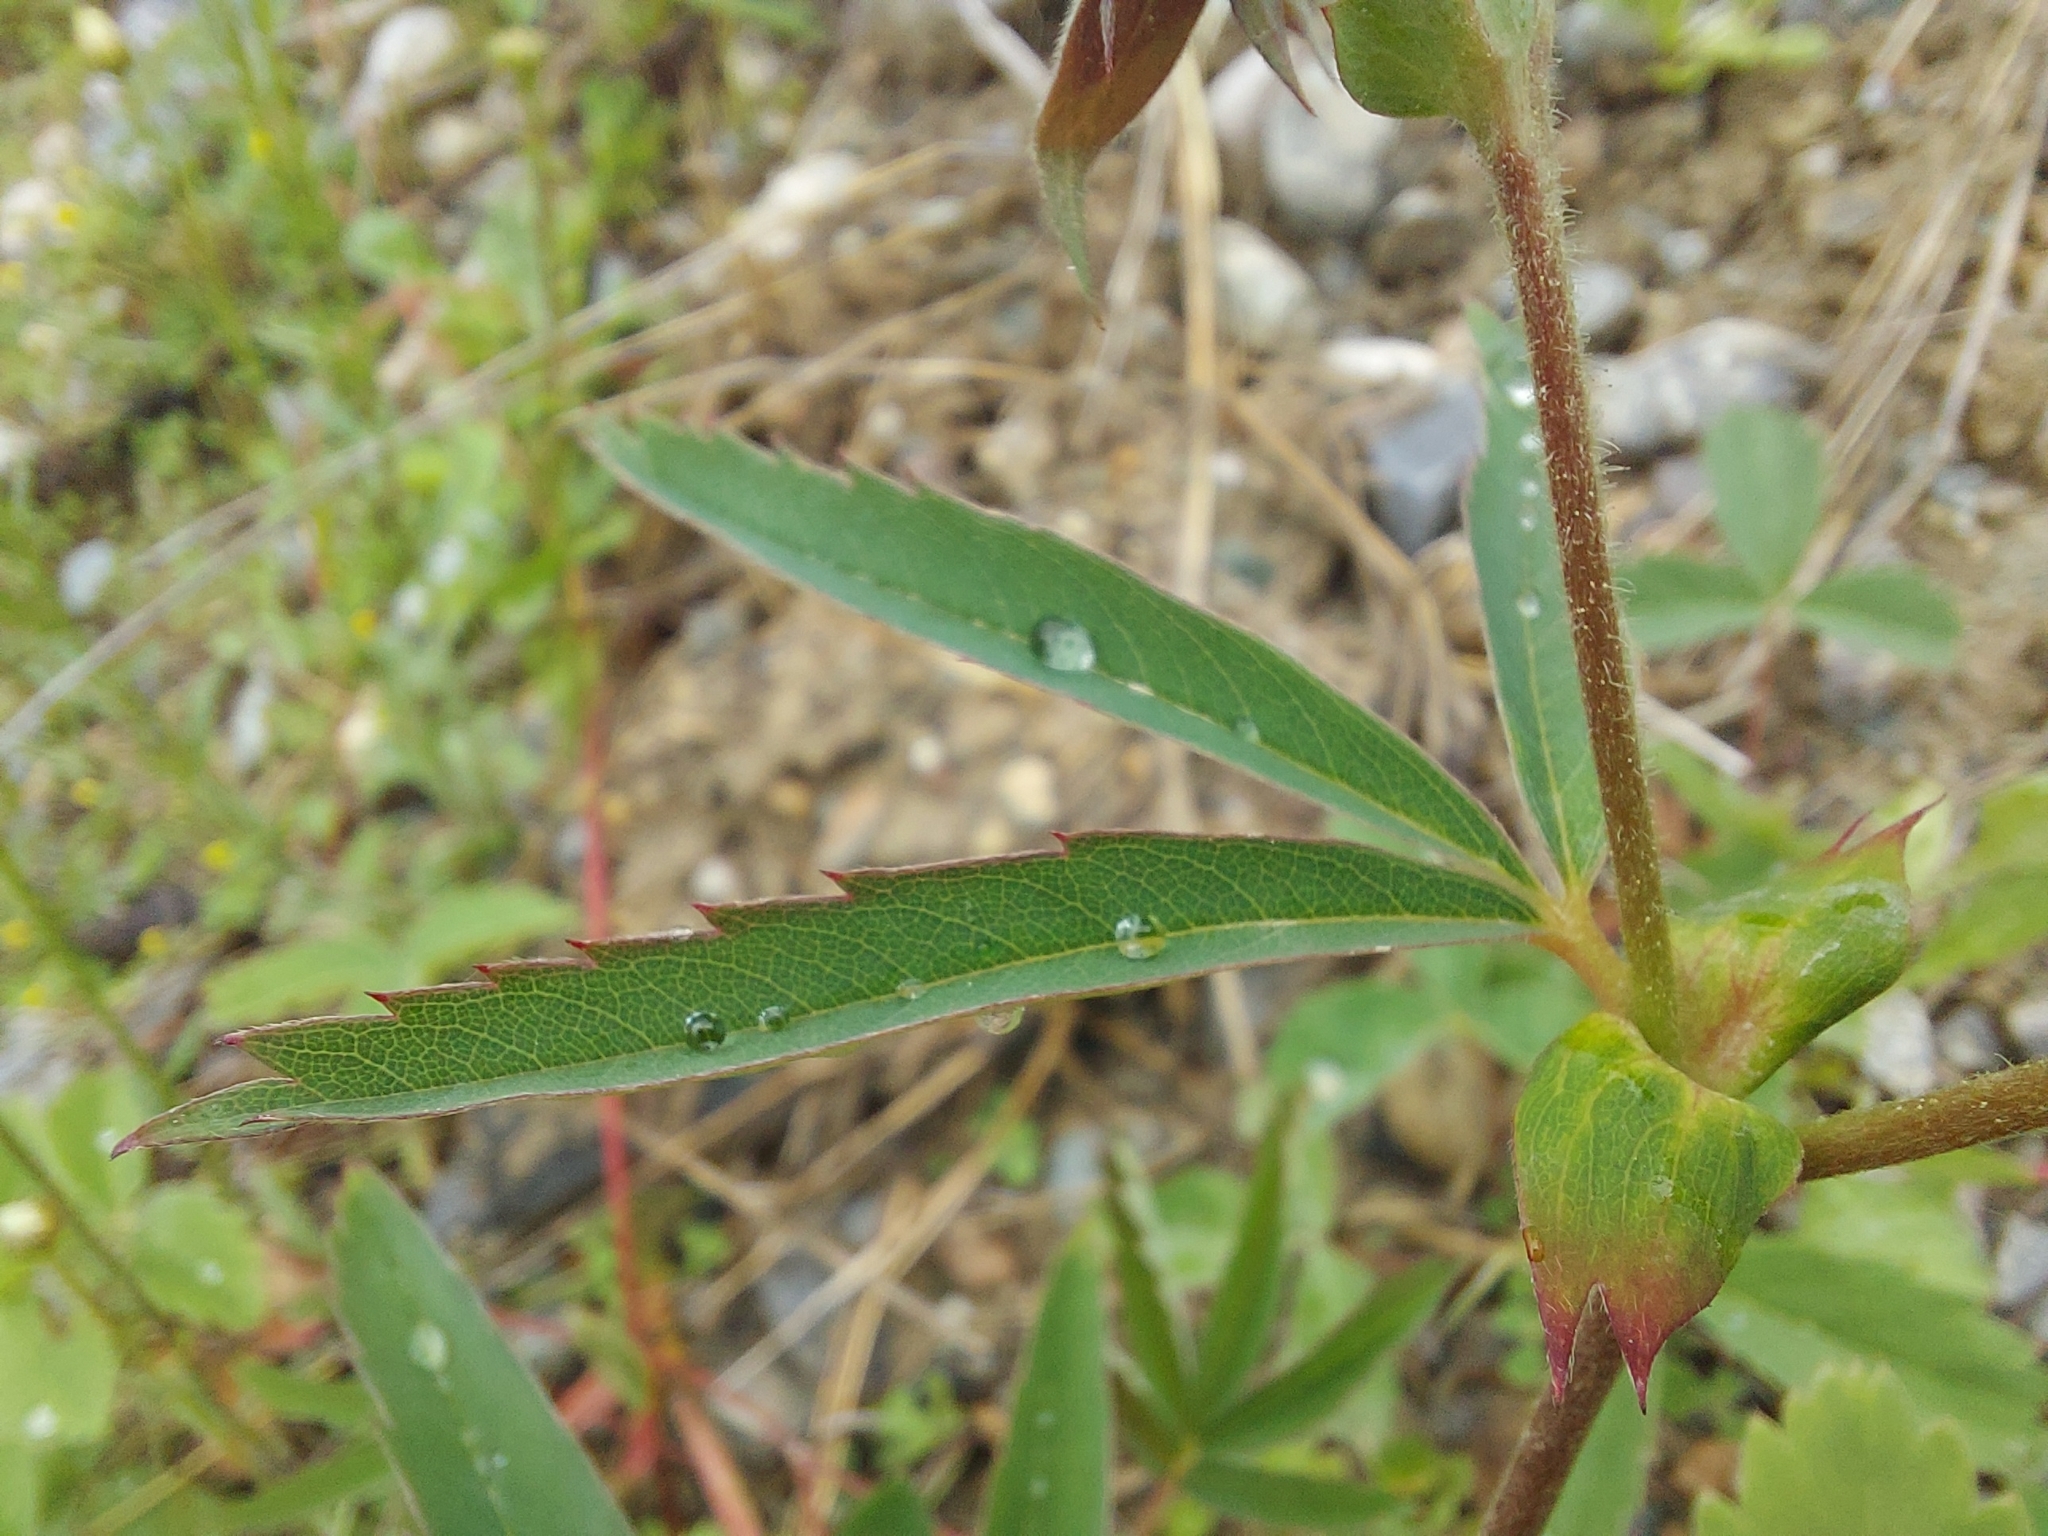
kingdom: Plantae
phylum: Tracheophyta
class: Magnoliopsida
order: Rosales
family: Rosaceae
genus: Comarum
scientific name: Comarum palustre
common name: Marsh cinquefoil
